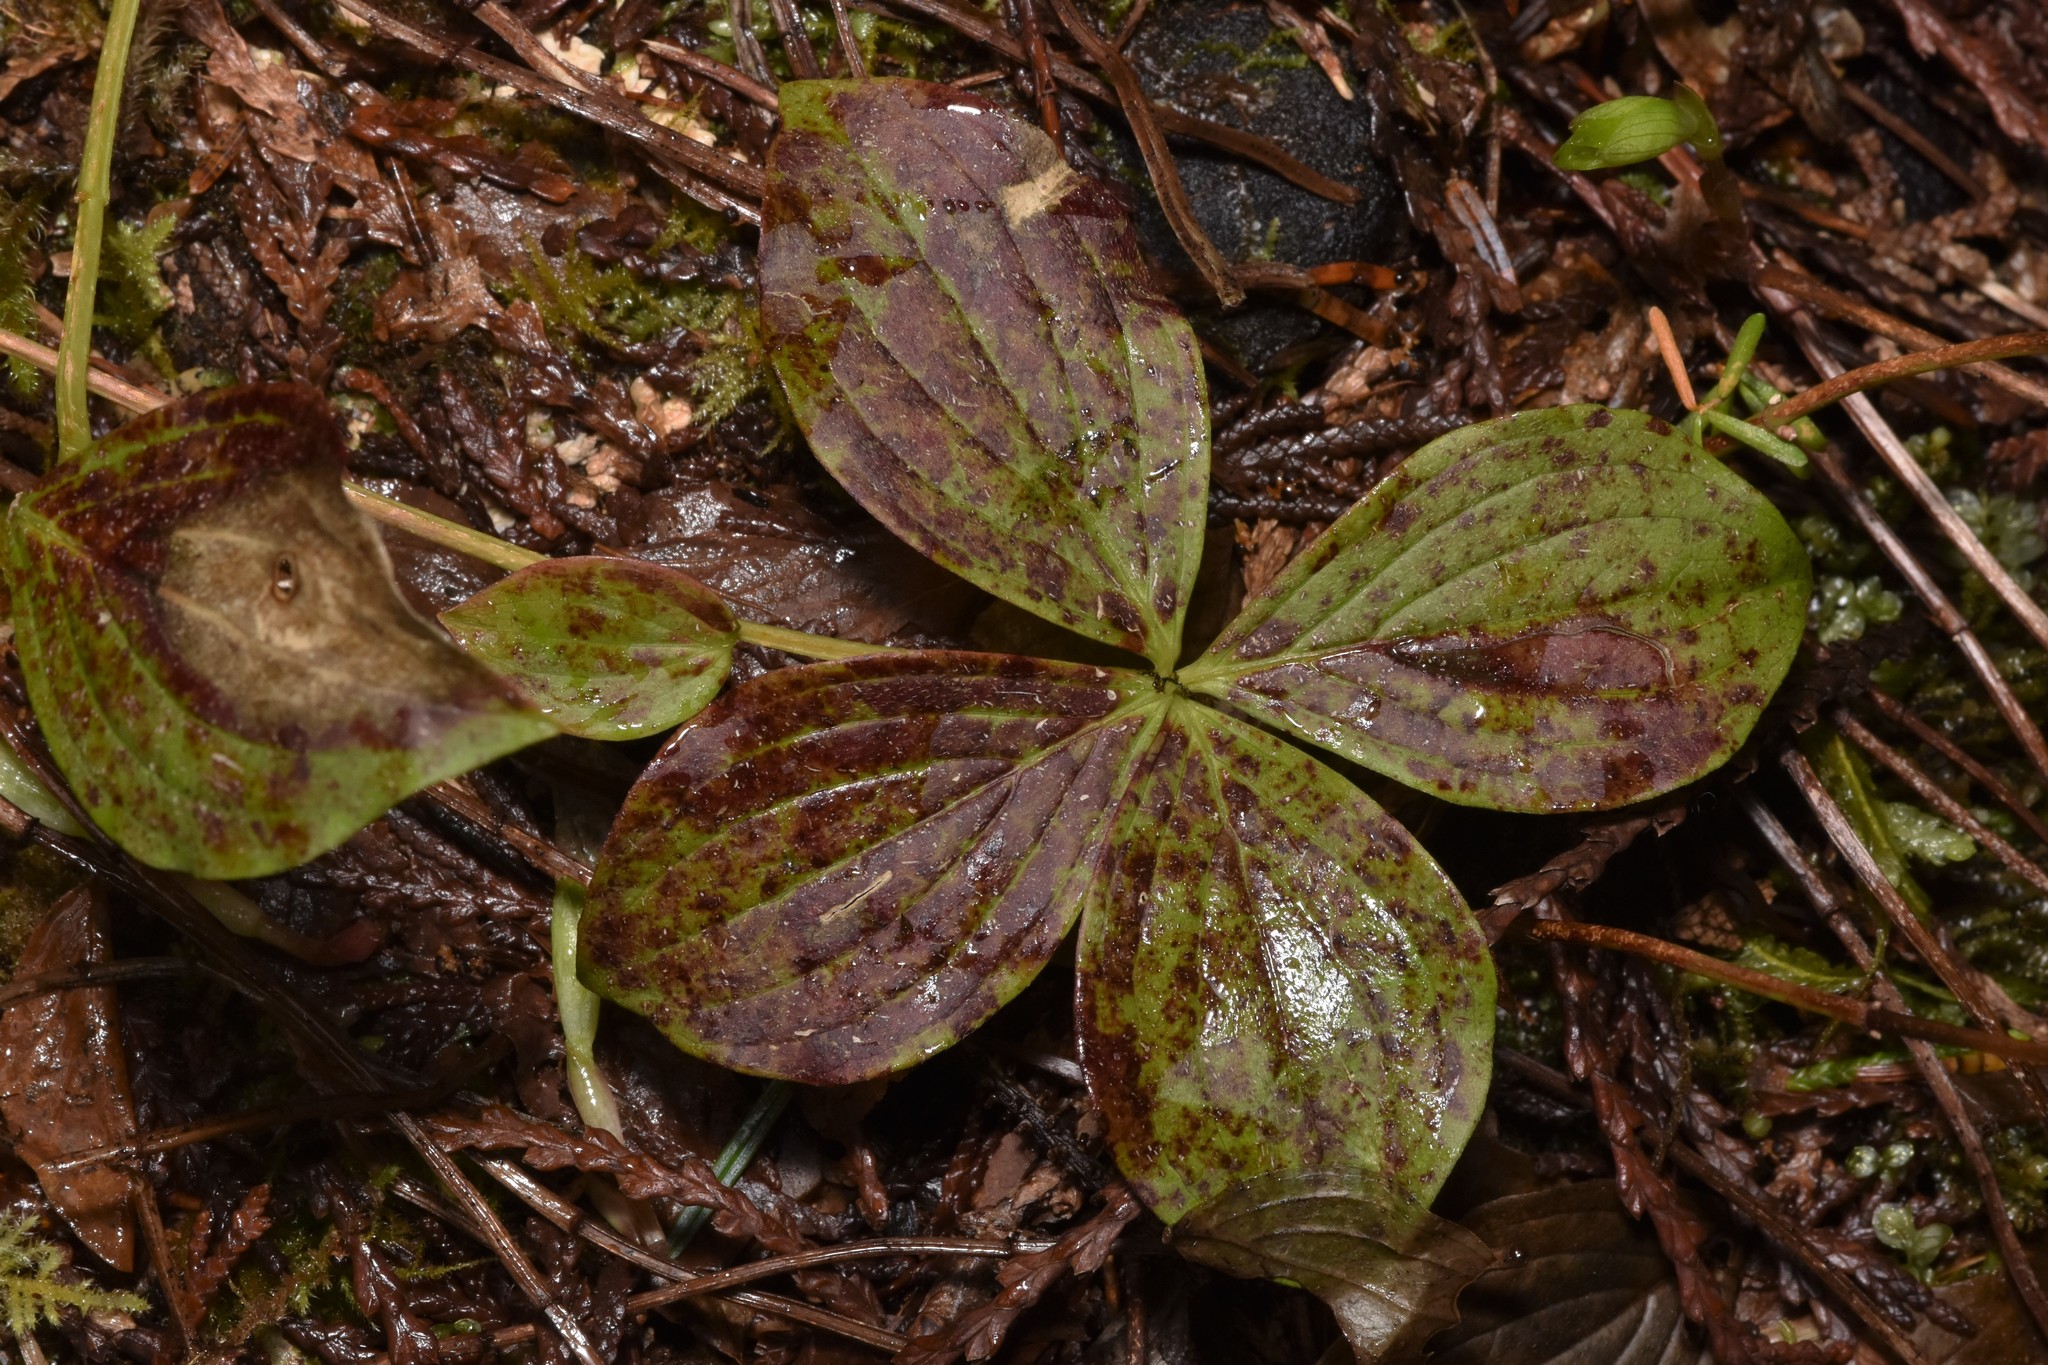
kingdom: Plantae
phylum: Tracheophyta
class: Magnoliopsida
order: Cornales
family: Cornaceae
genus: Cornus
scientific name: Cornus unalaschkensis
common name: Alaska bunchberry
